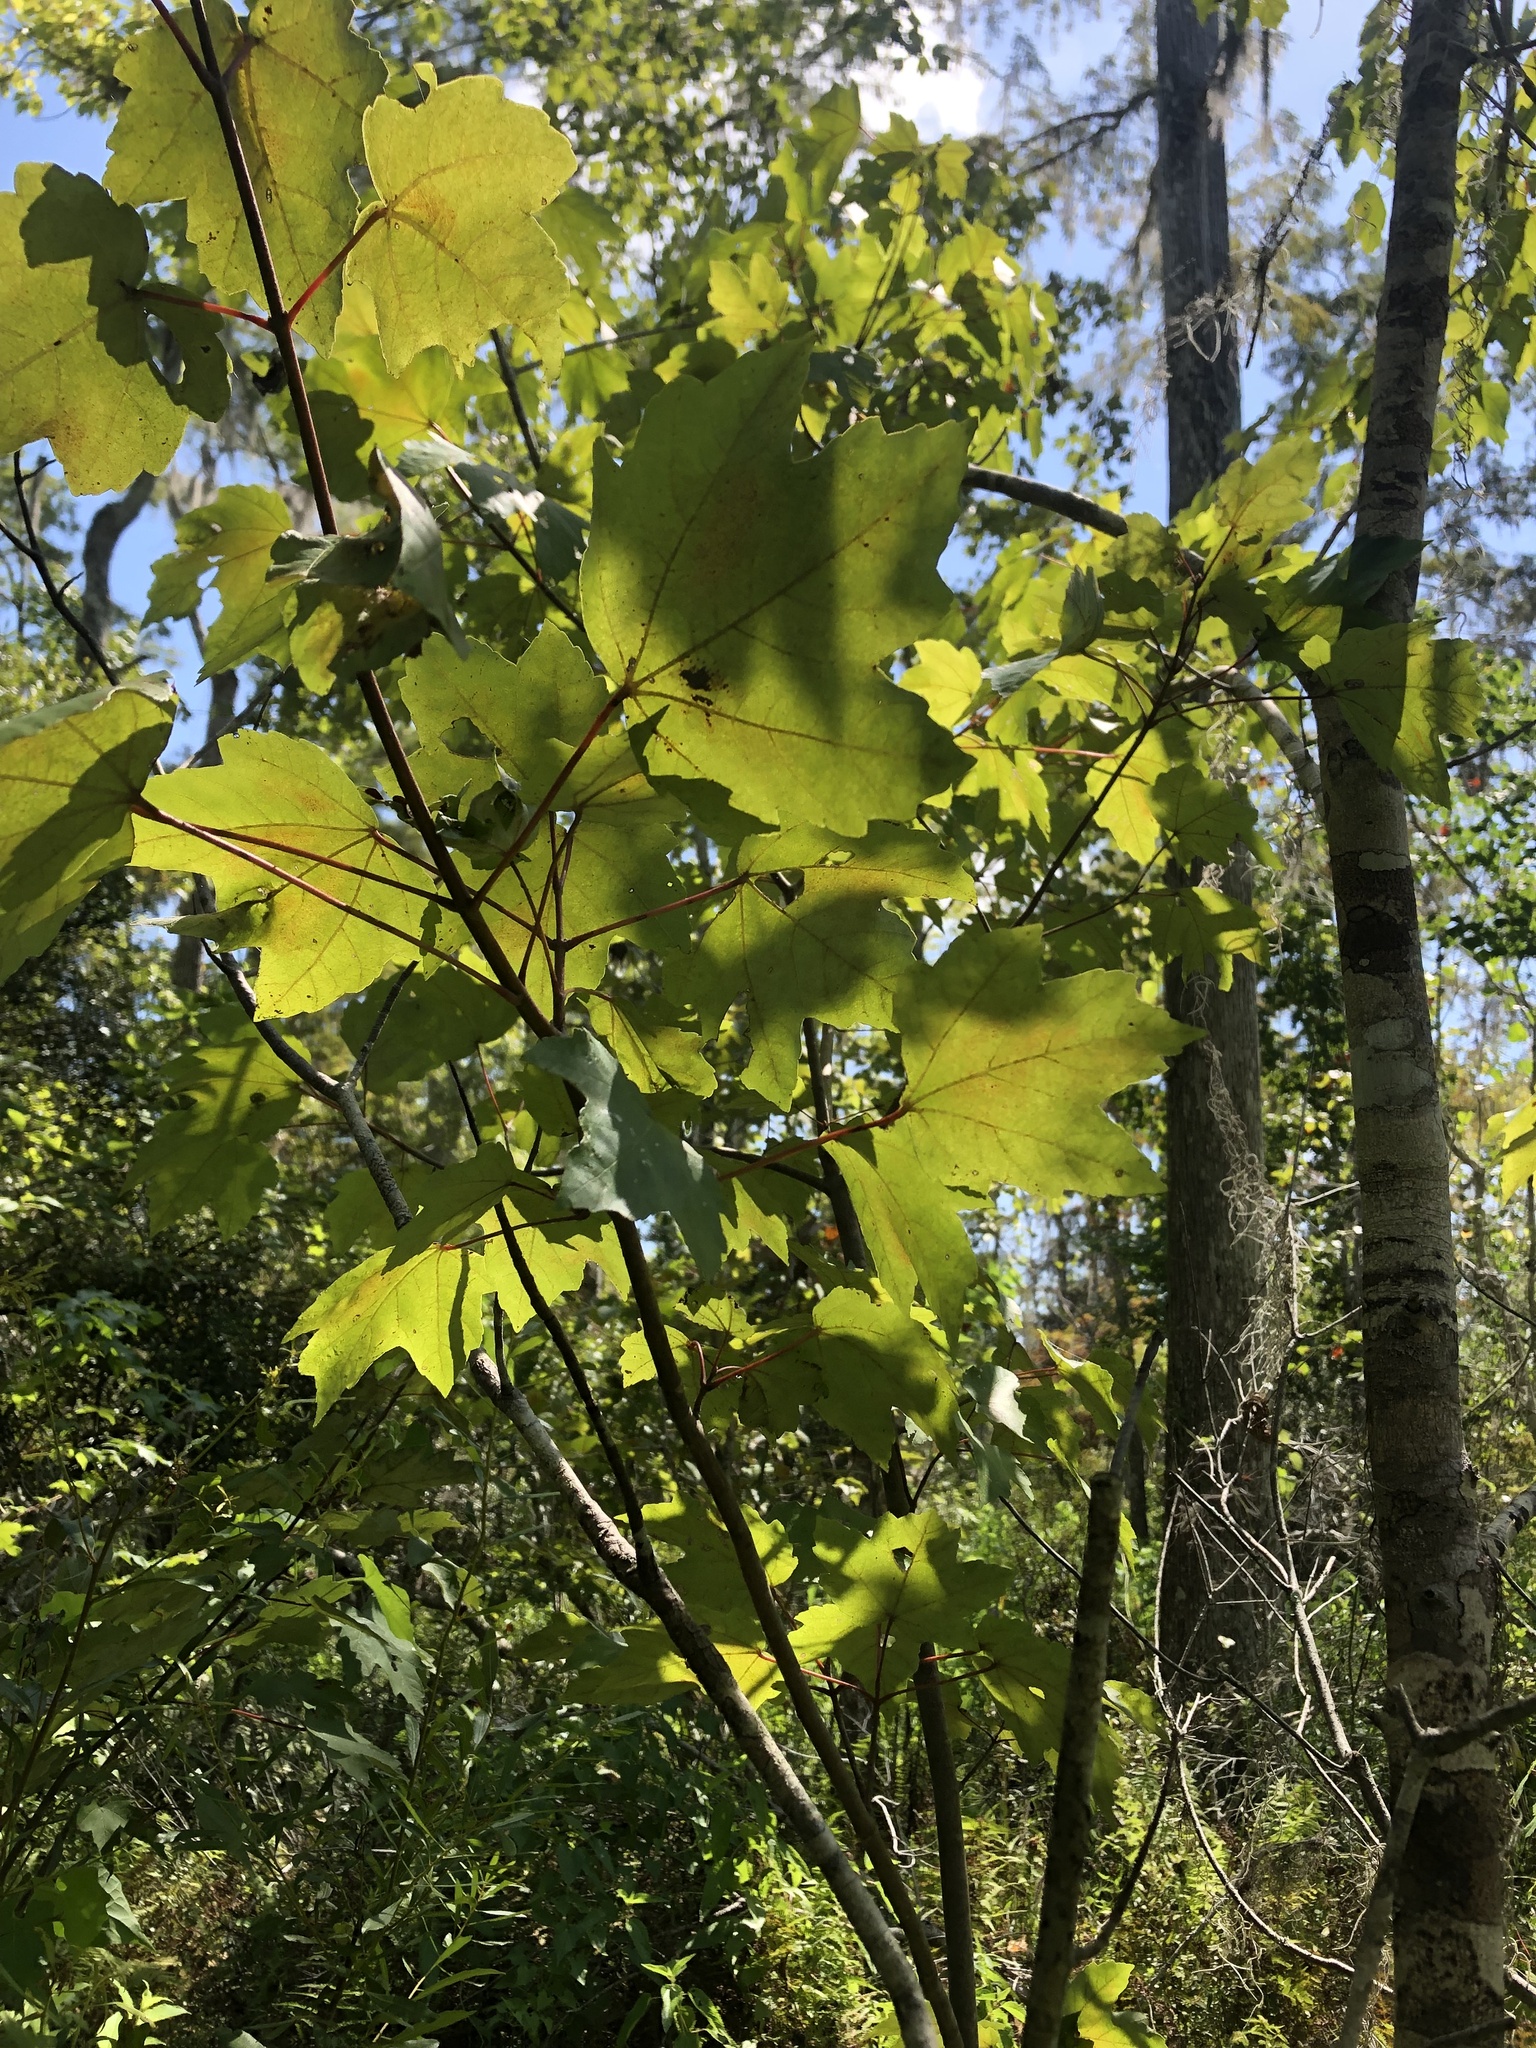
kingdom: Plantae
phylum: Tracheophyta
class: Magnoliopsida
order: Sapindales
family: Sapindaceae
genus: Acer
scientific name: Acer rubrum
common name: Red maple
